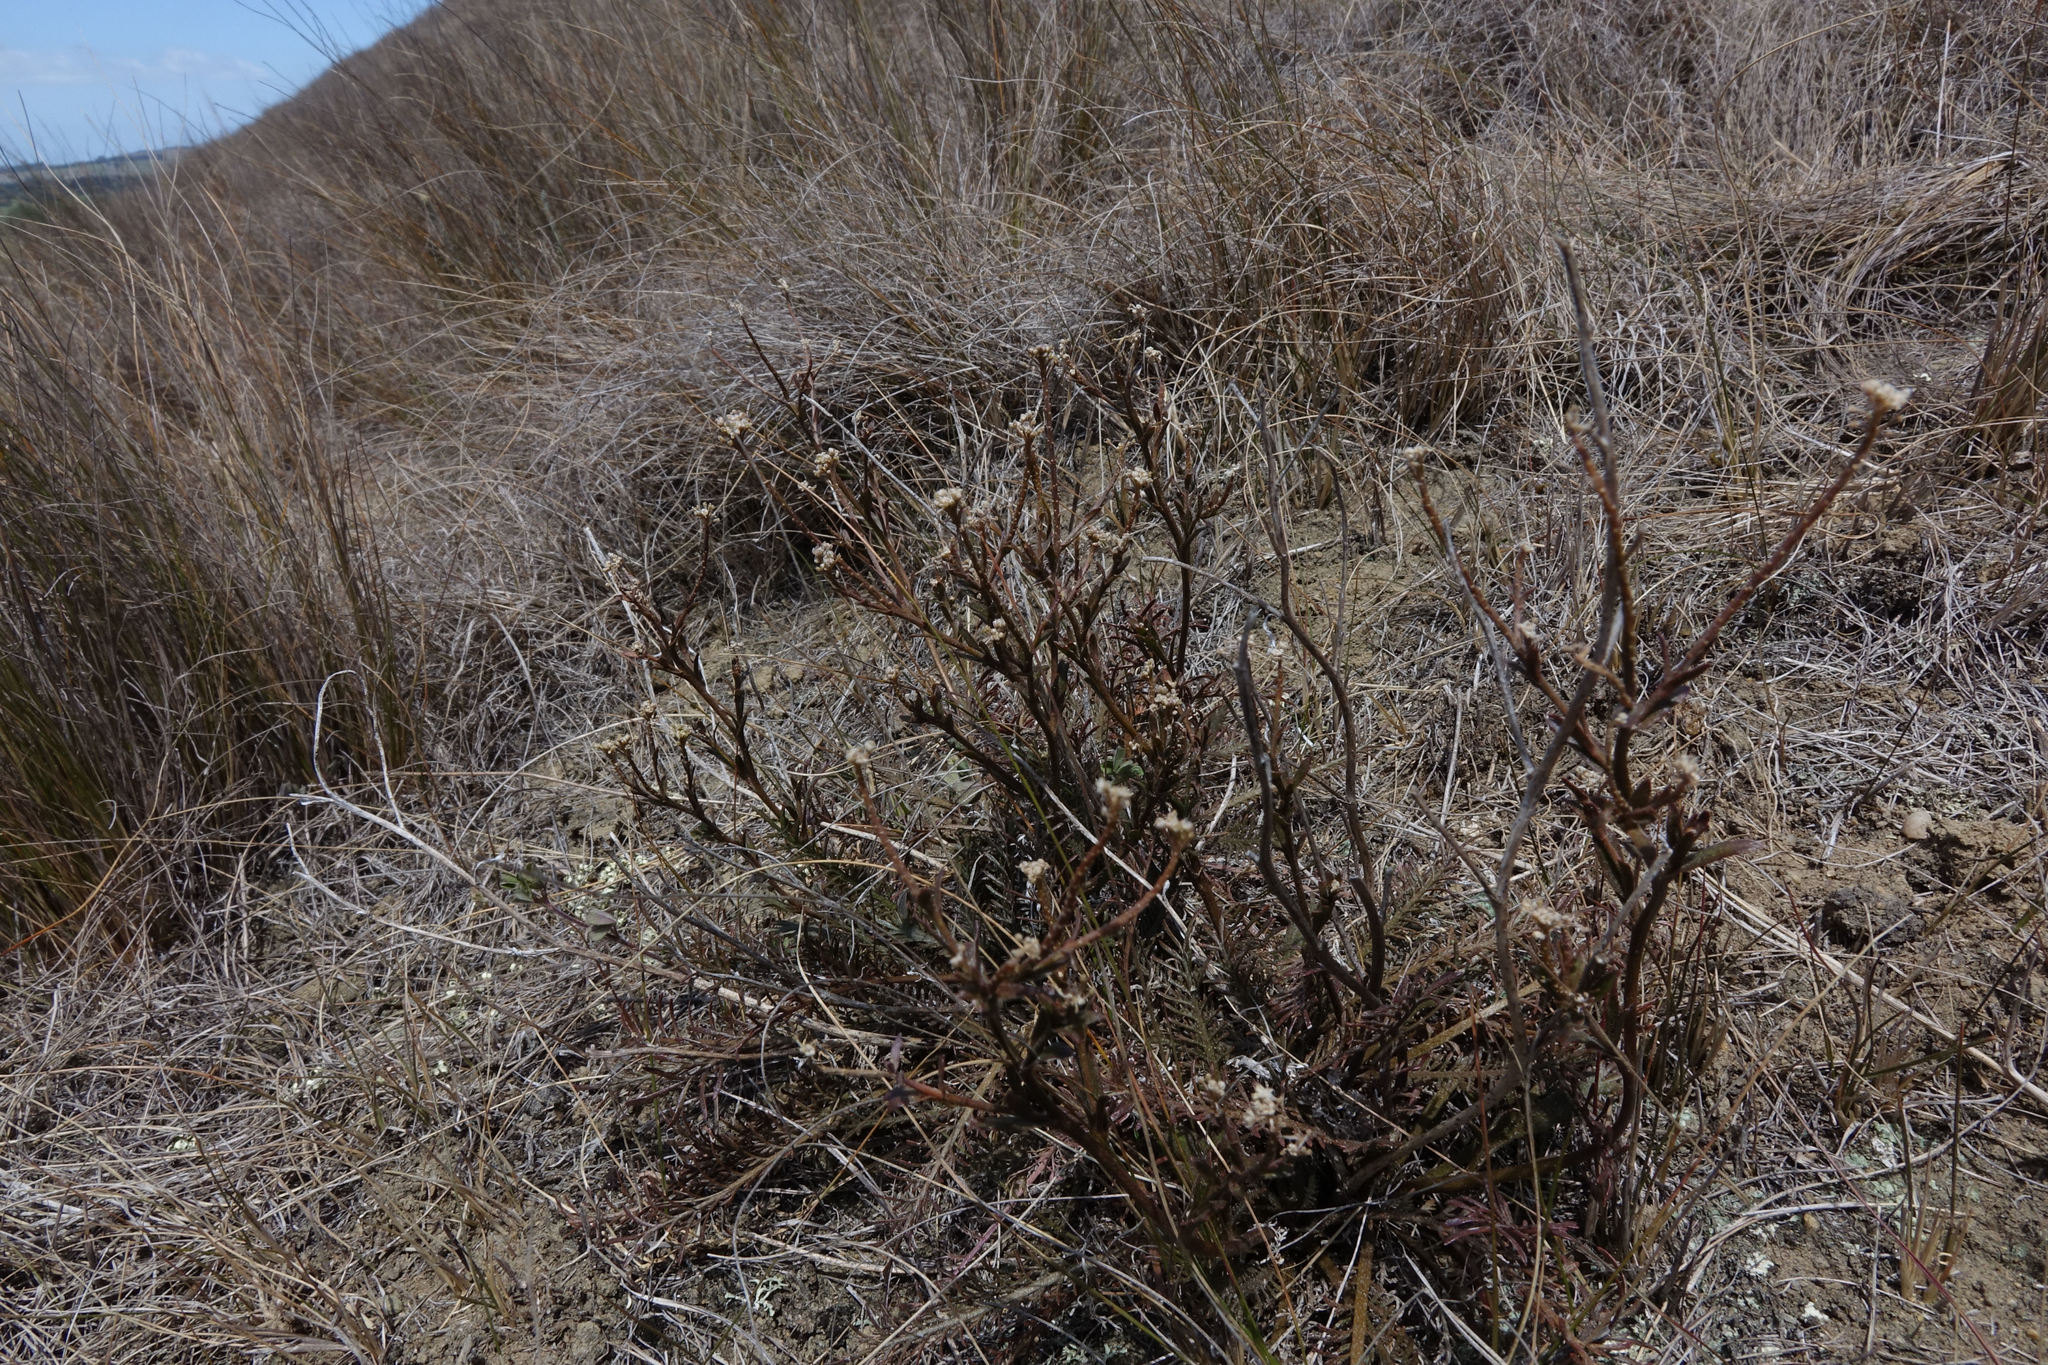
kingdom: Plantae
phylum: Tracheophyta
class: Magnoliopsida
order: Brassicales
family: Brassicaceae
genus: Lepidium
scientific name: Lepidium sisymbrioides
